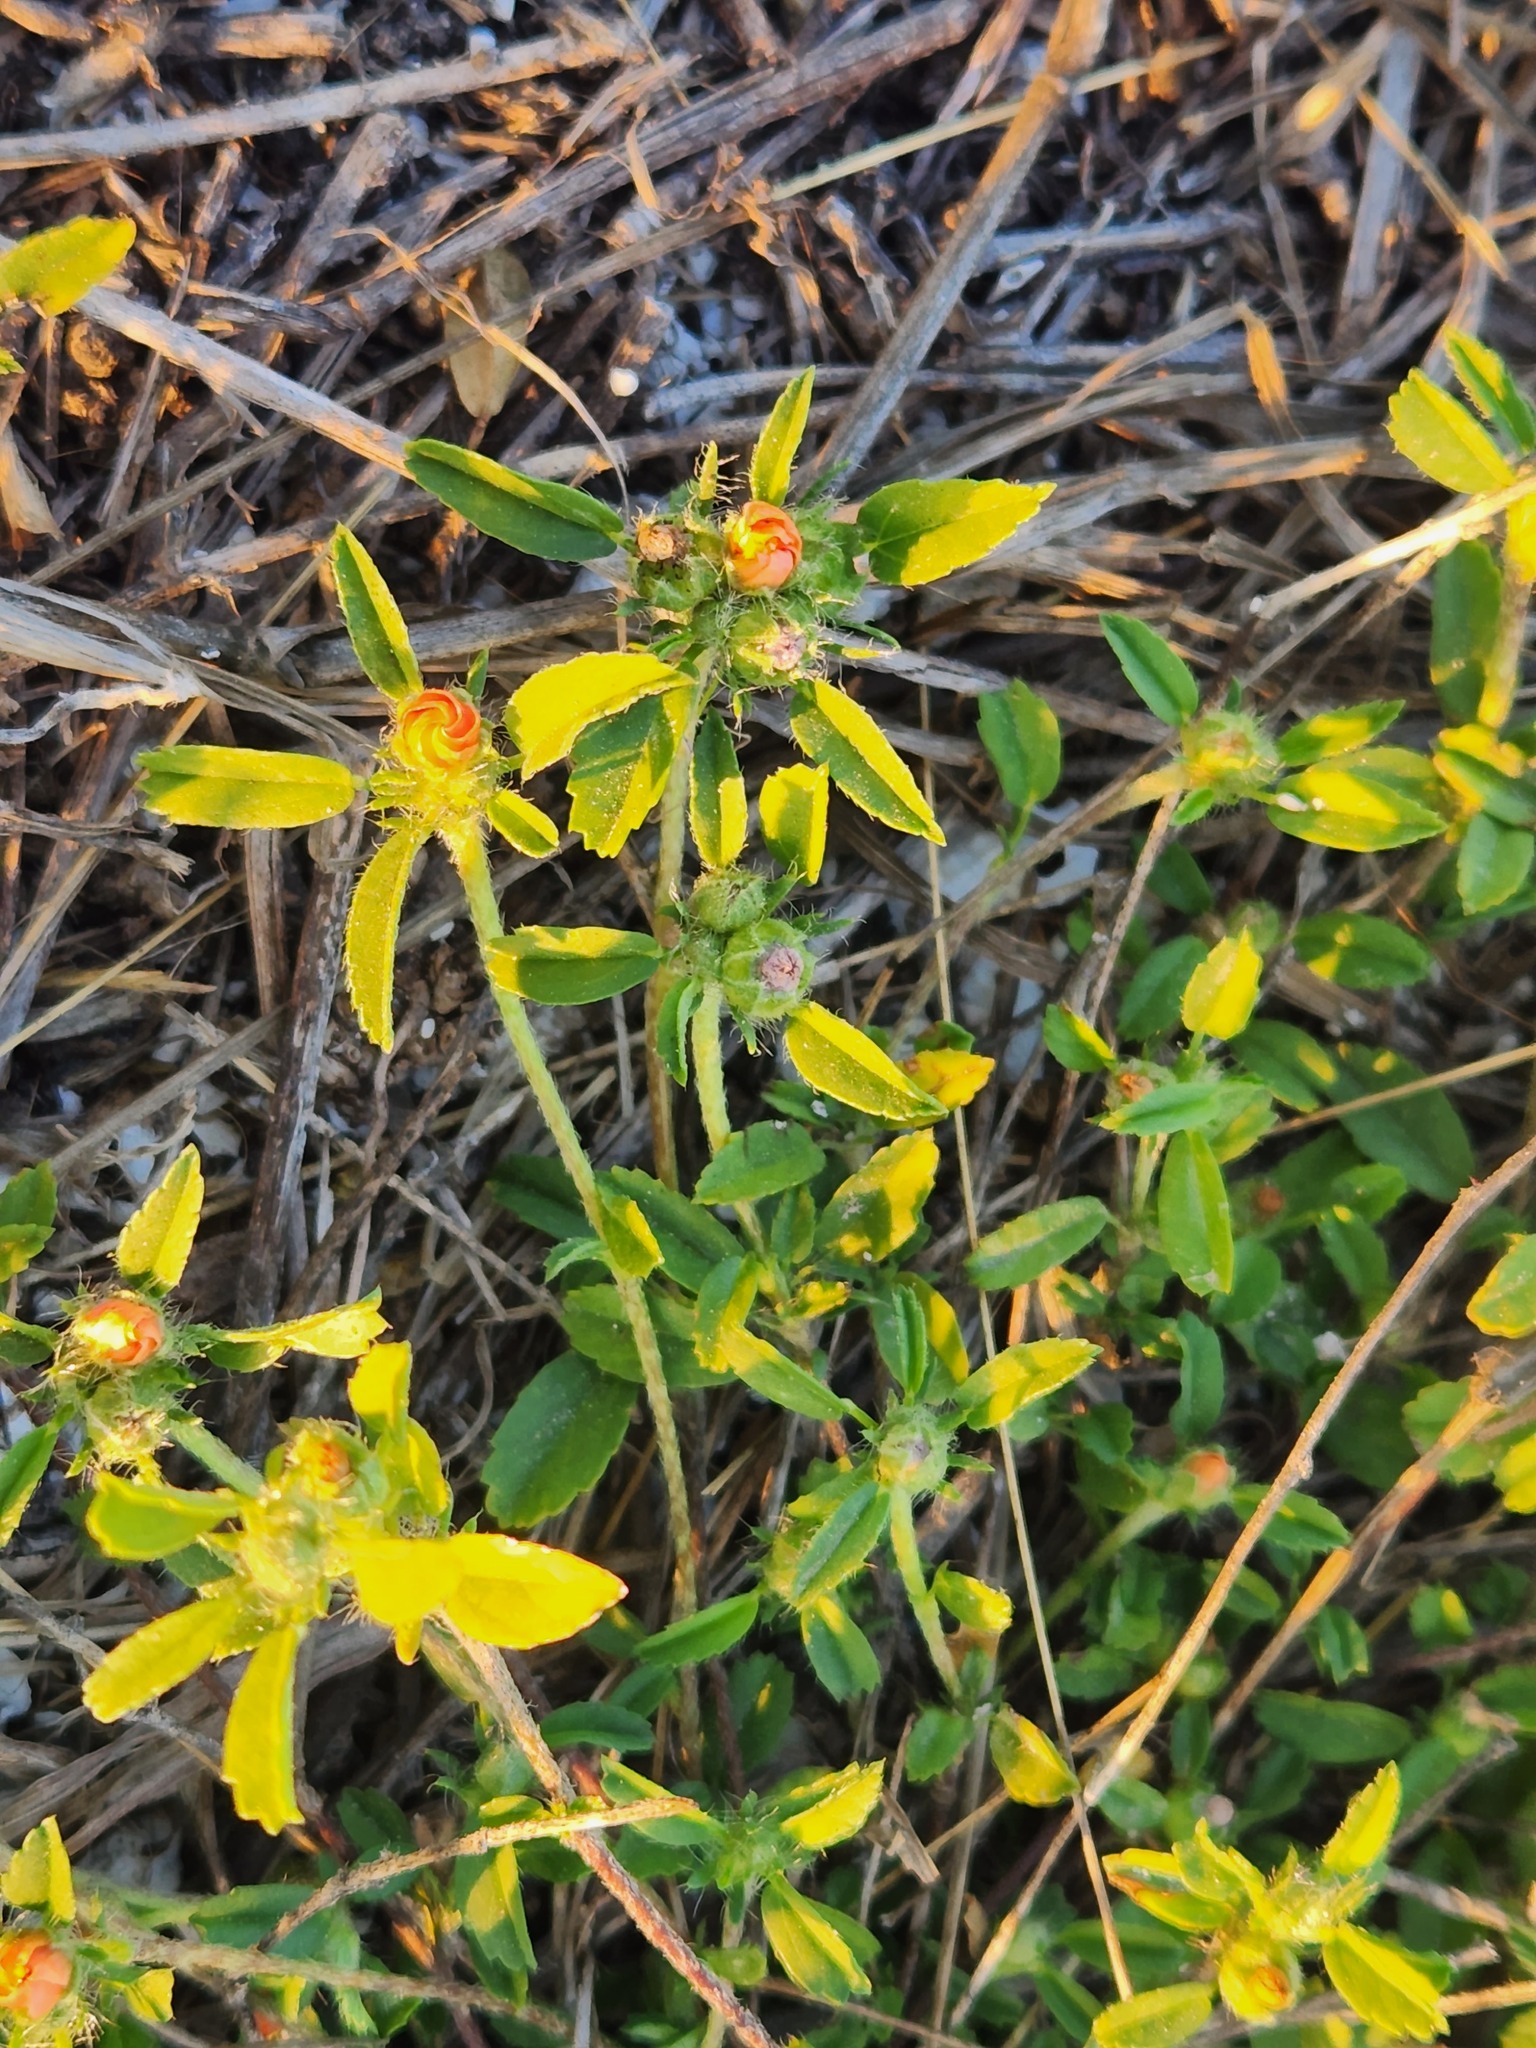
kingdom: Plantae
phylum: Tracheophyta
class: Magnoliopsida
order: Malvales
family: Malvaceae
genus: Sida
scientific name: Sida ciliaris
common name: Bracted fanpetals
